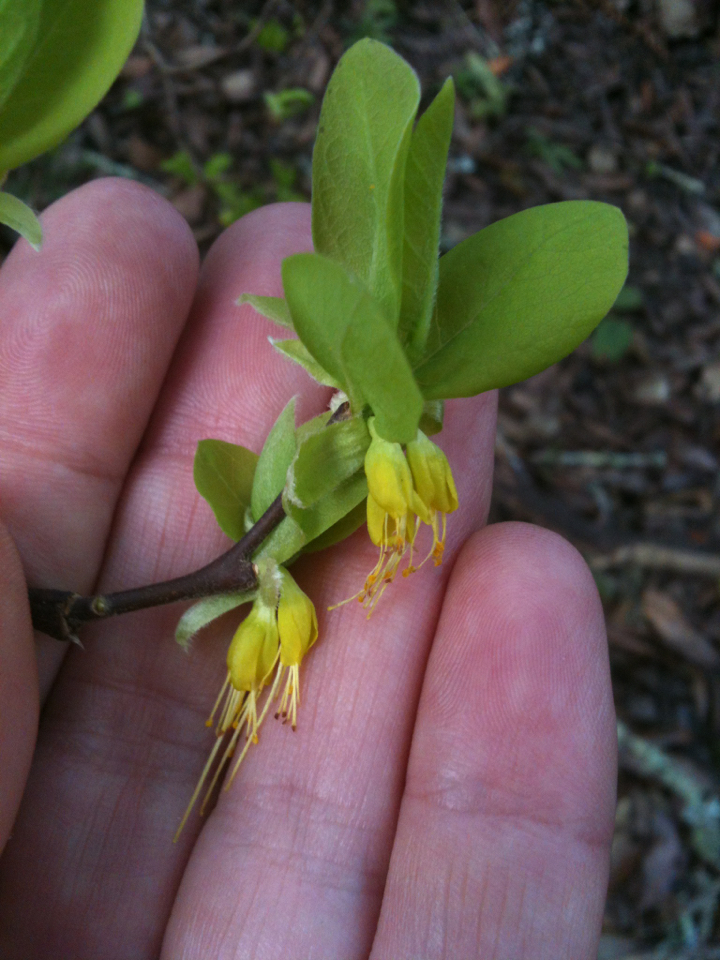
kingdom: Plantae
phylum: Tracheophyta
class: Magnoliopsida
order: Malvales
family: Thymelaeaceae
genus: Dirca
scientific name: Dirca occidentalis
